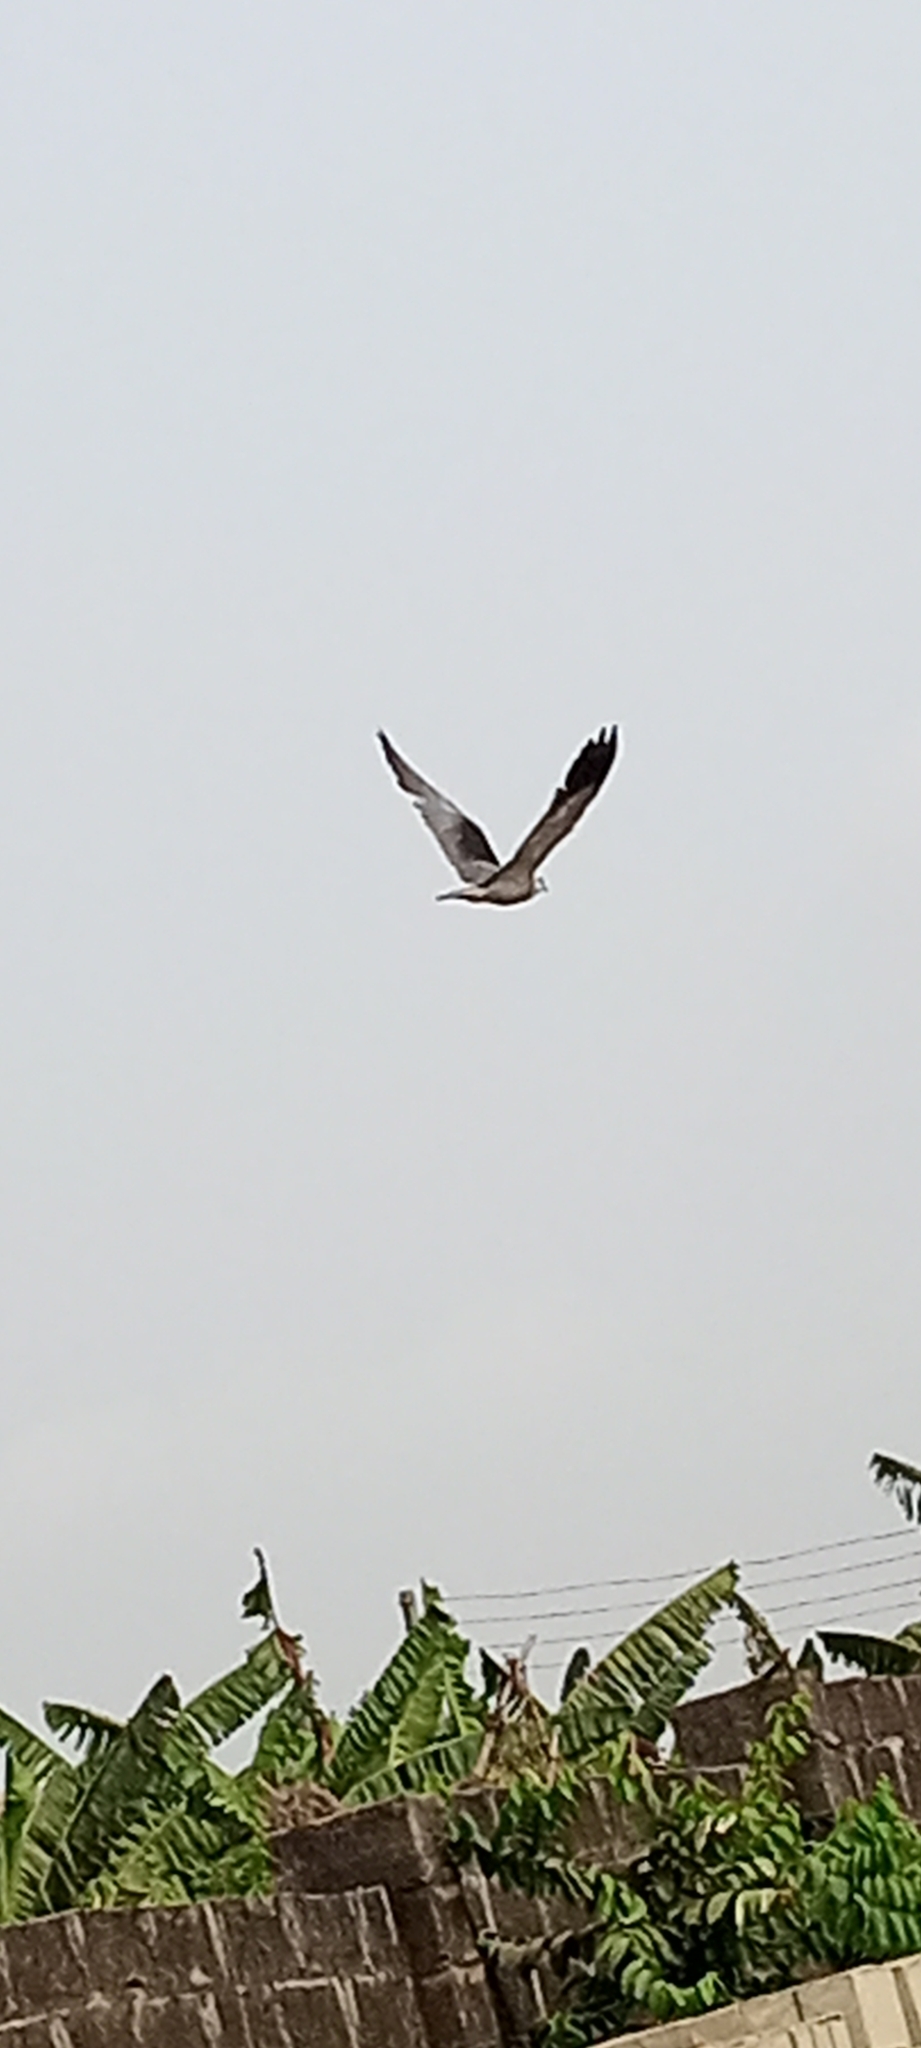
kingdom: Animalia
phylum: Chordata
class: Aves
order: Accipitriformes
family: Accipitridae
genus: Elanus
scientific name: Elanus caeruleus
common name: Black-winged kite
